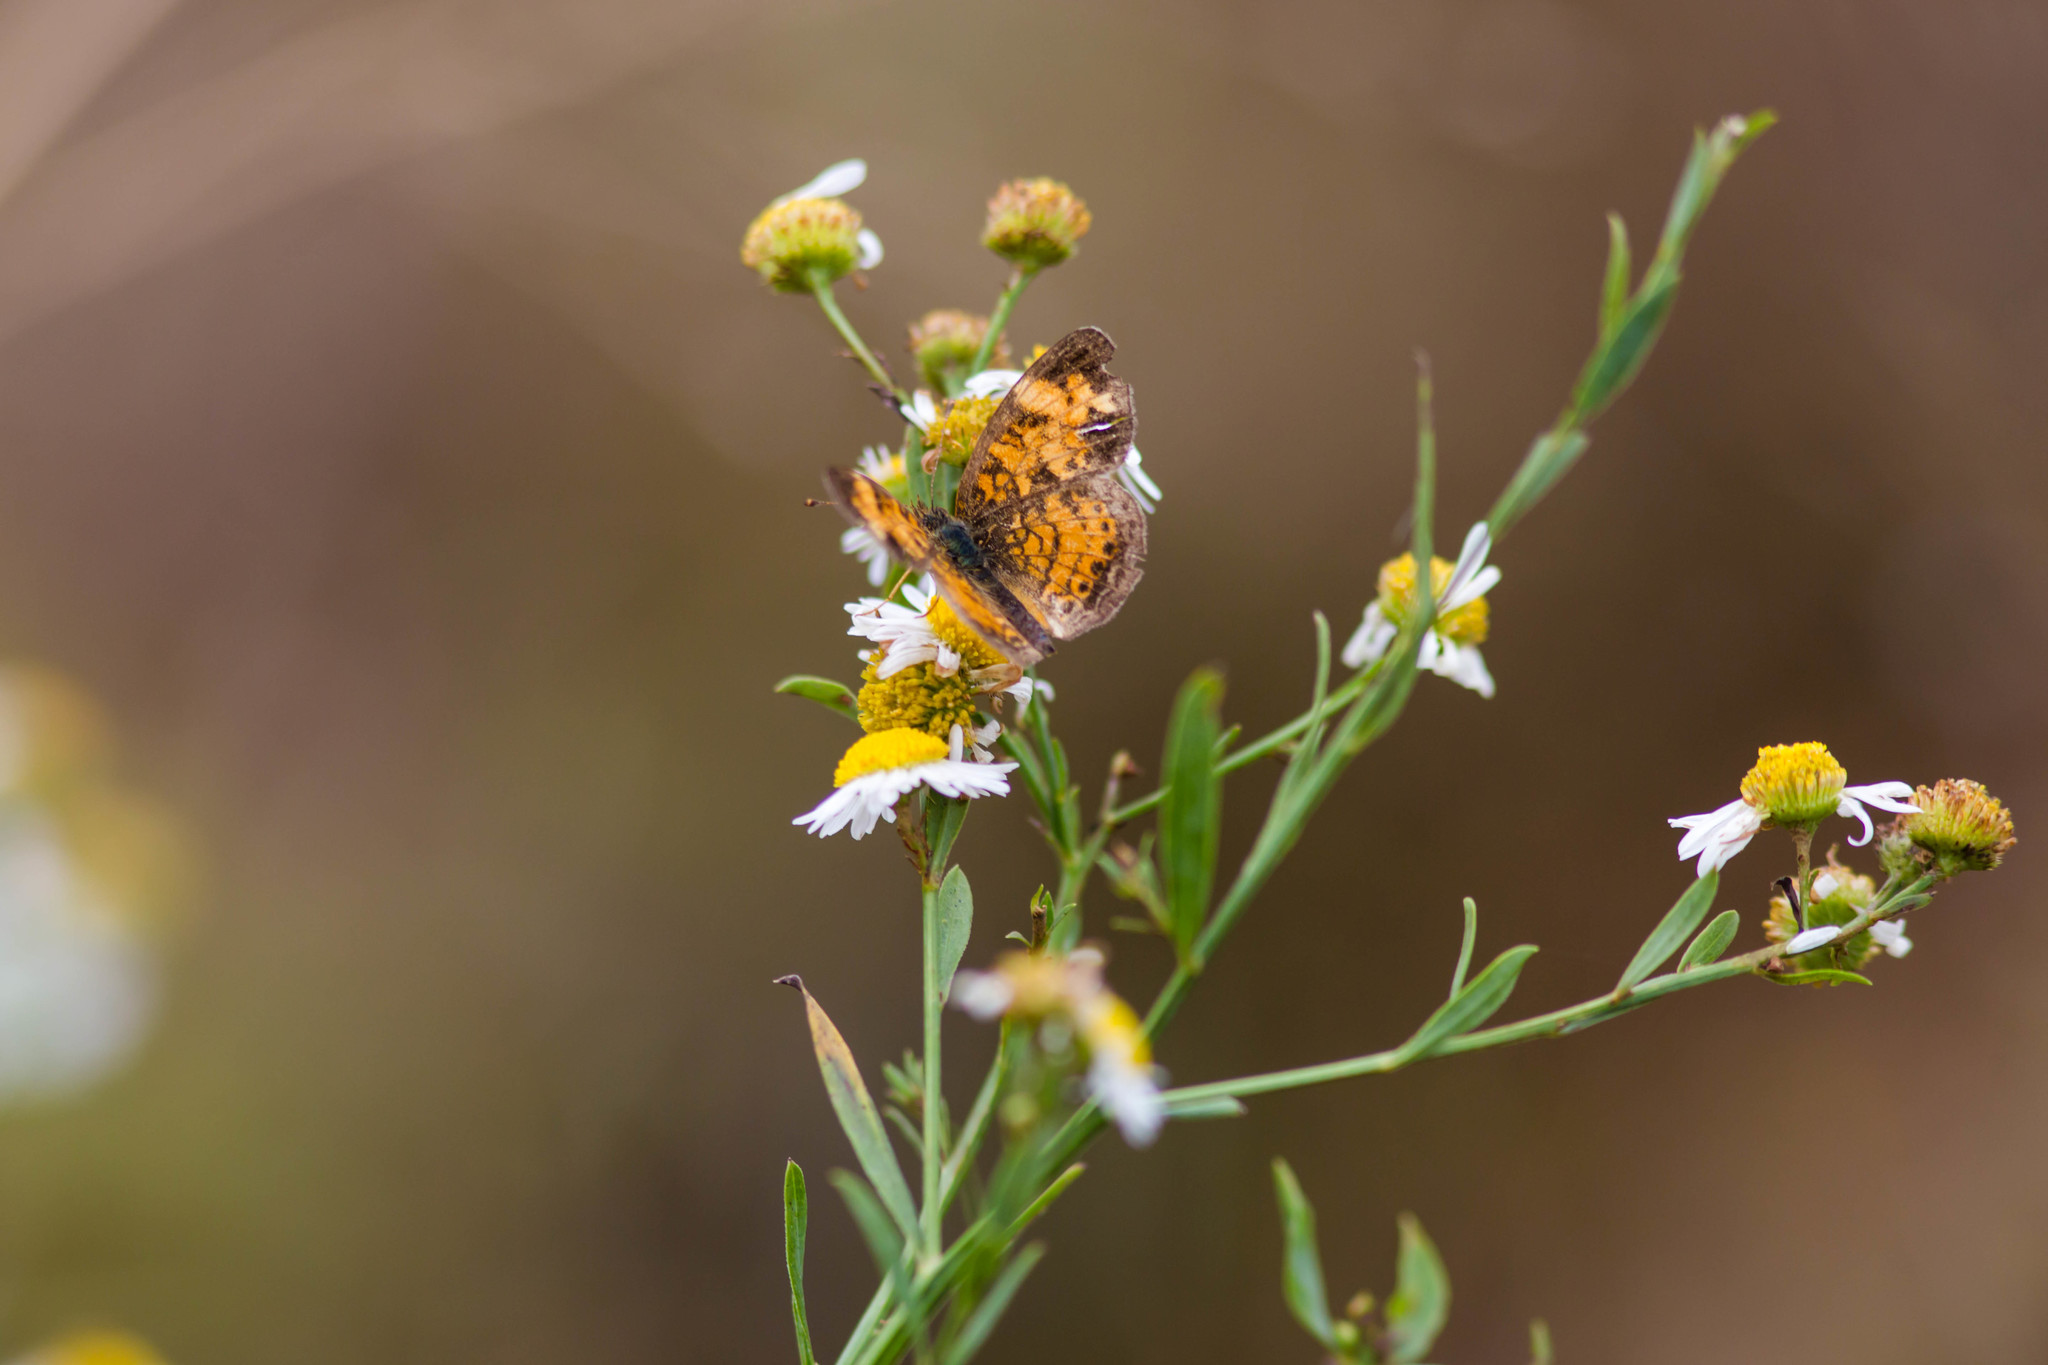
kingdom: Animalia
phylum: Arthropoda
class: Insecta
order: Lepidoptera
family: Nymphalidae
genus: Phyciodes
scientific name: Phyciodes tharos
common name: Pearl crescent
